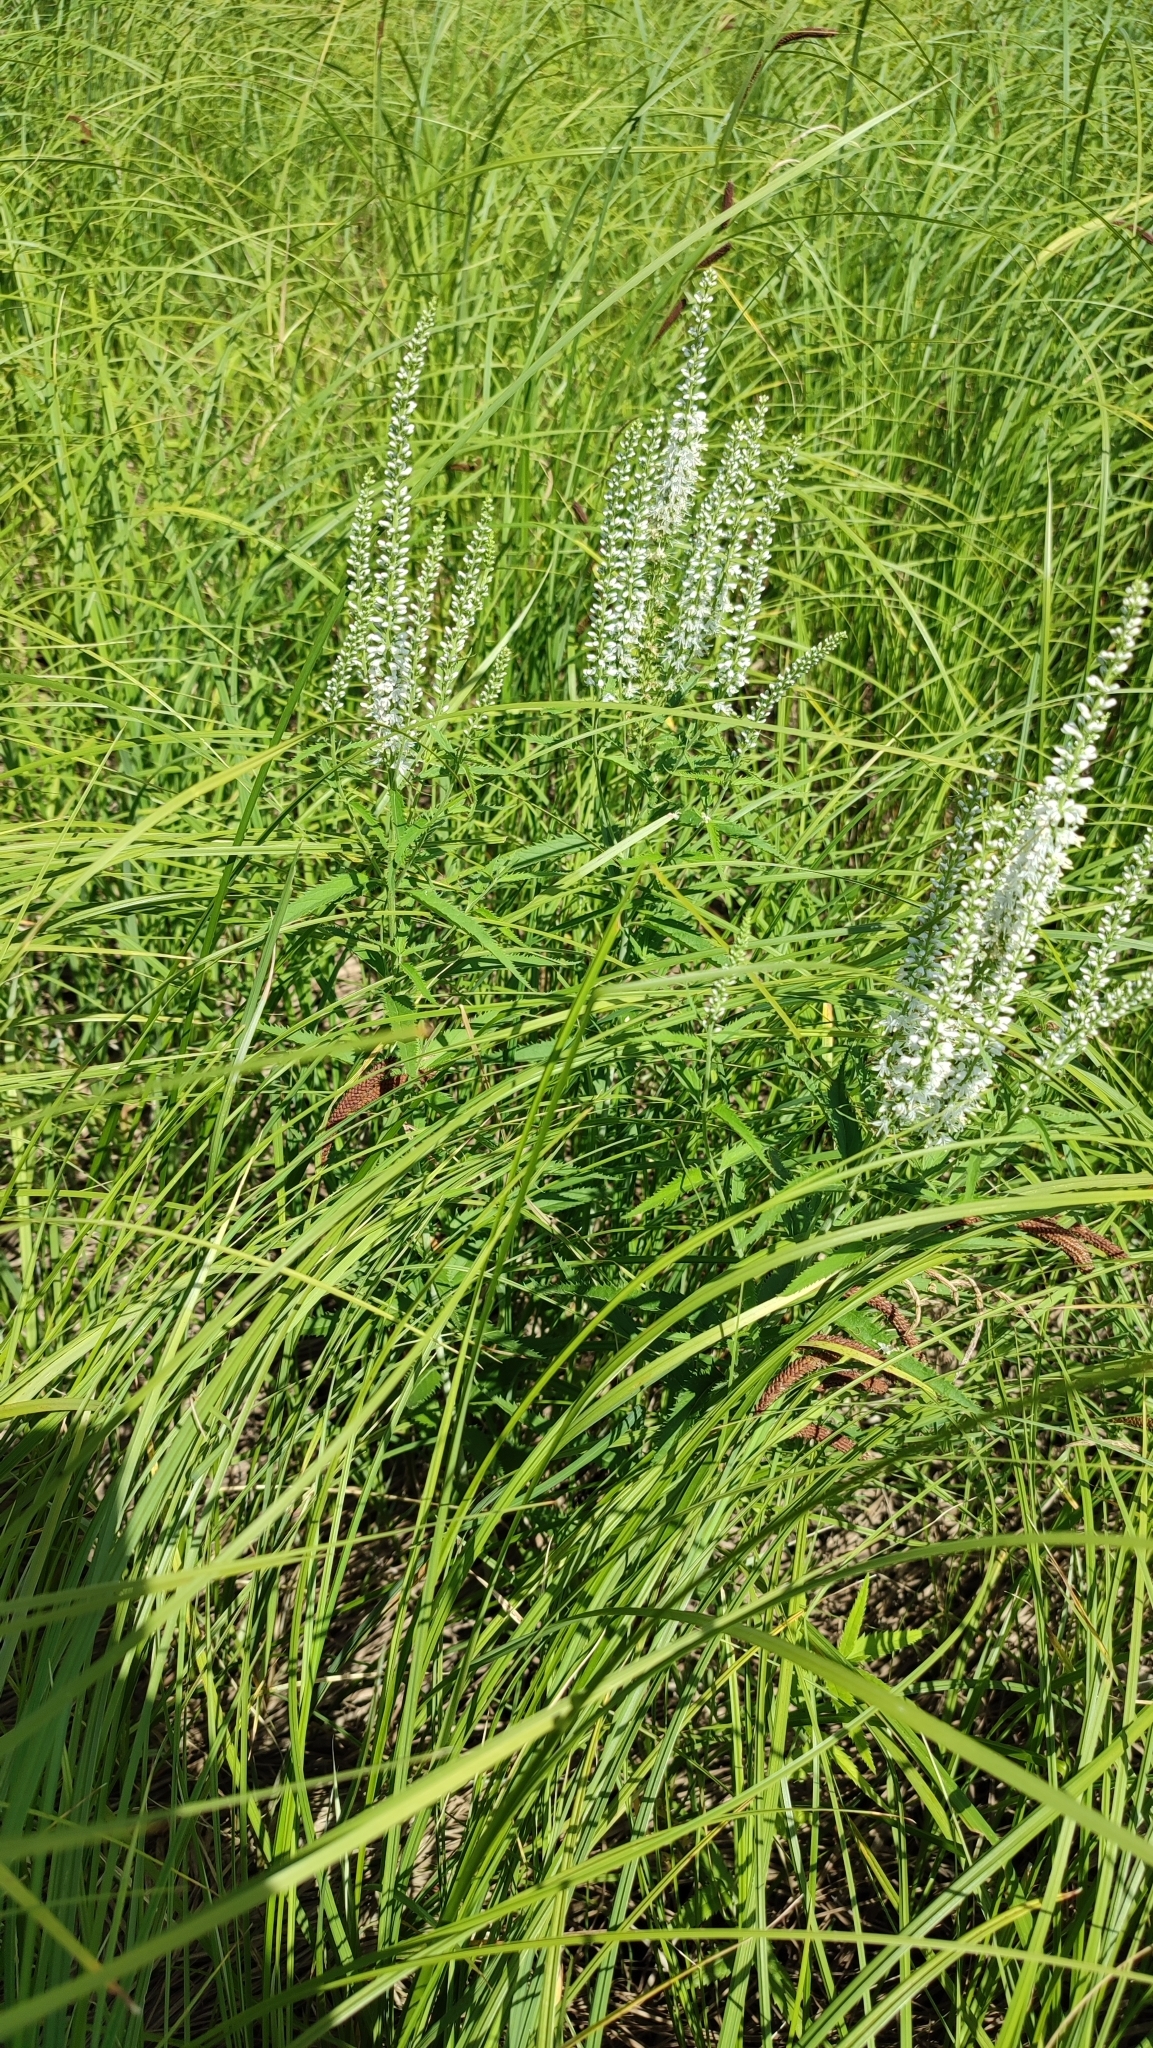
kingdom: Plantae
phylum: Tracheophyta
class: Magnoliopsida
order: Lamiales
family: Plantaginaceae
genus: Veronica
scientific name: Veronica longifolia
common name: Garden speedwell
